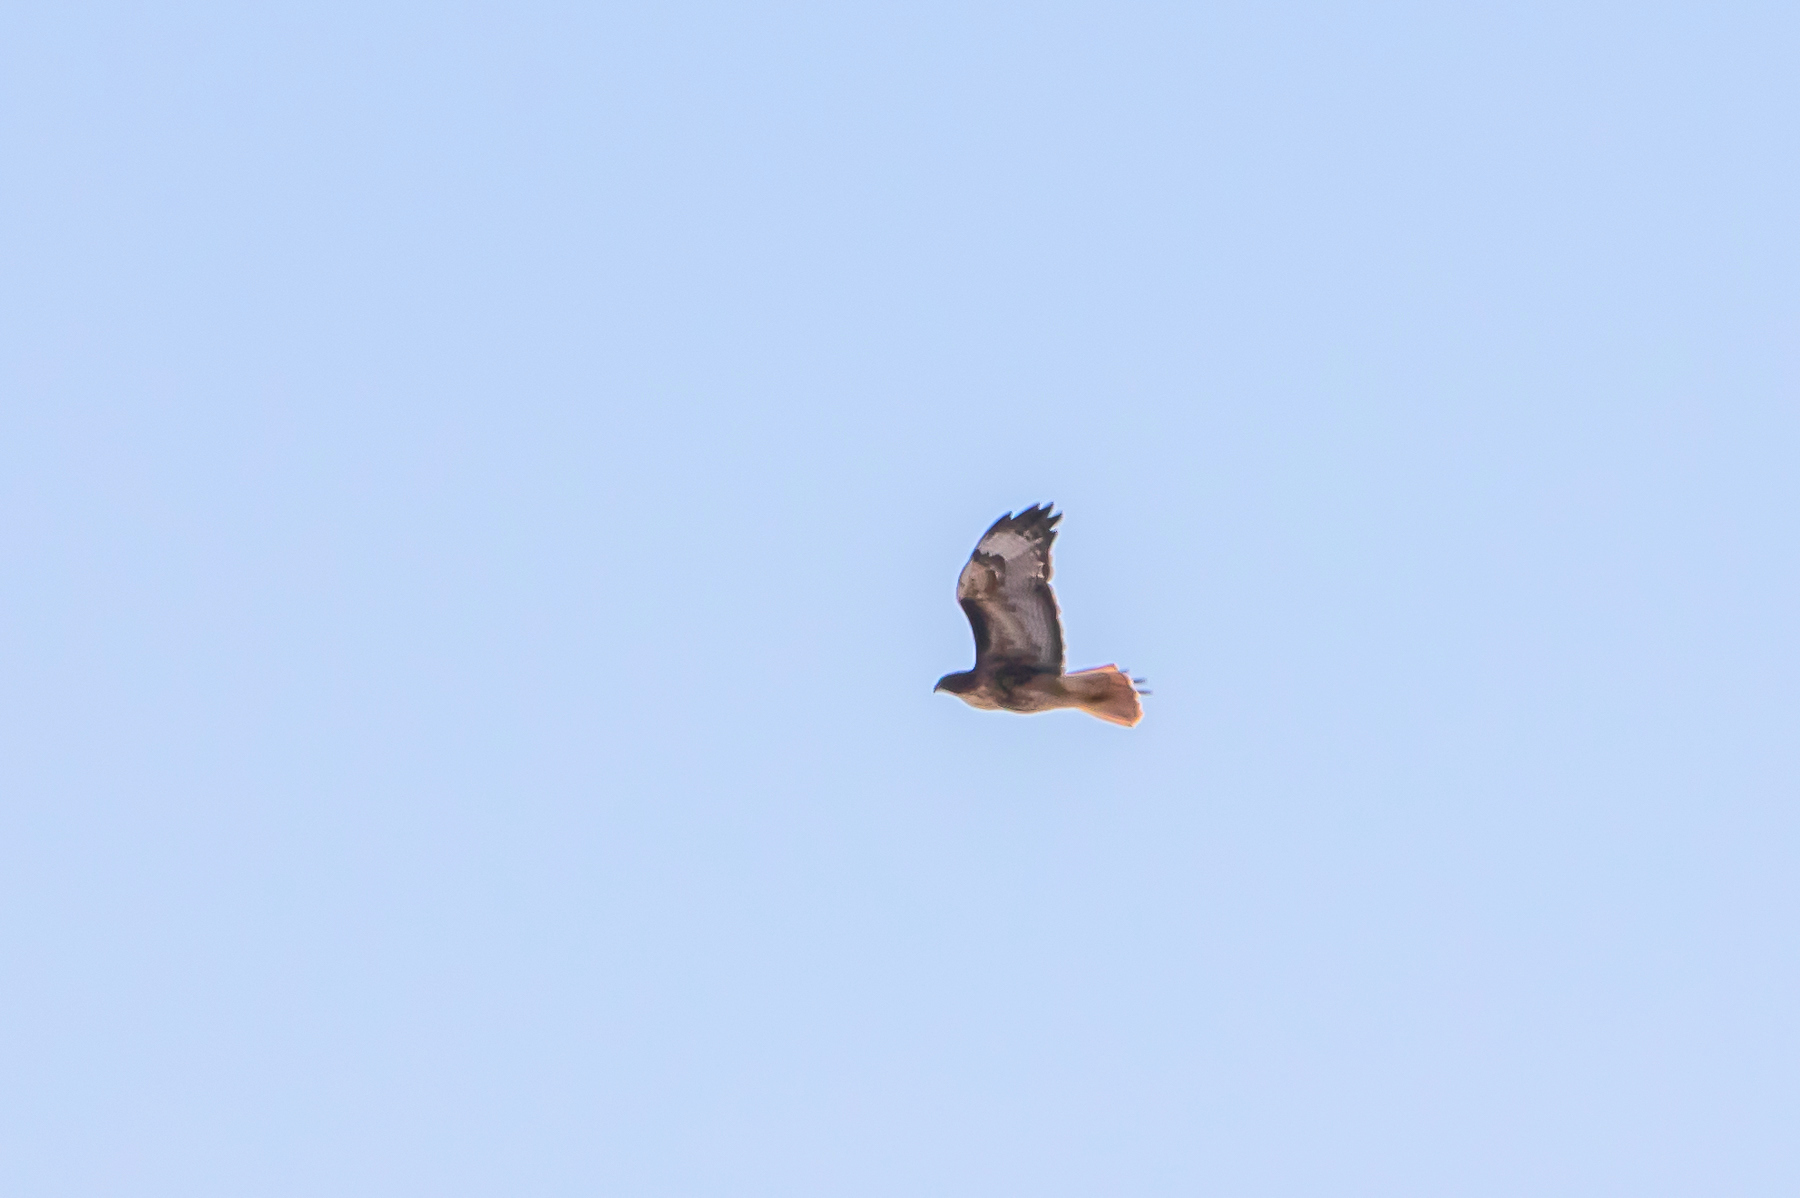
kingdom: Animalia
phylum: Chordata
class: Aves
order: Accipitriformes
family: Accipitridae
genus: Buteo
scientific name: Buteo jamaicensis
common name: Red-tailed hawk
